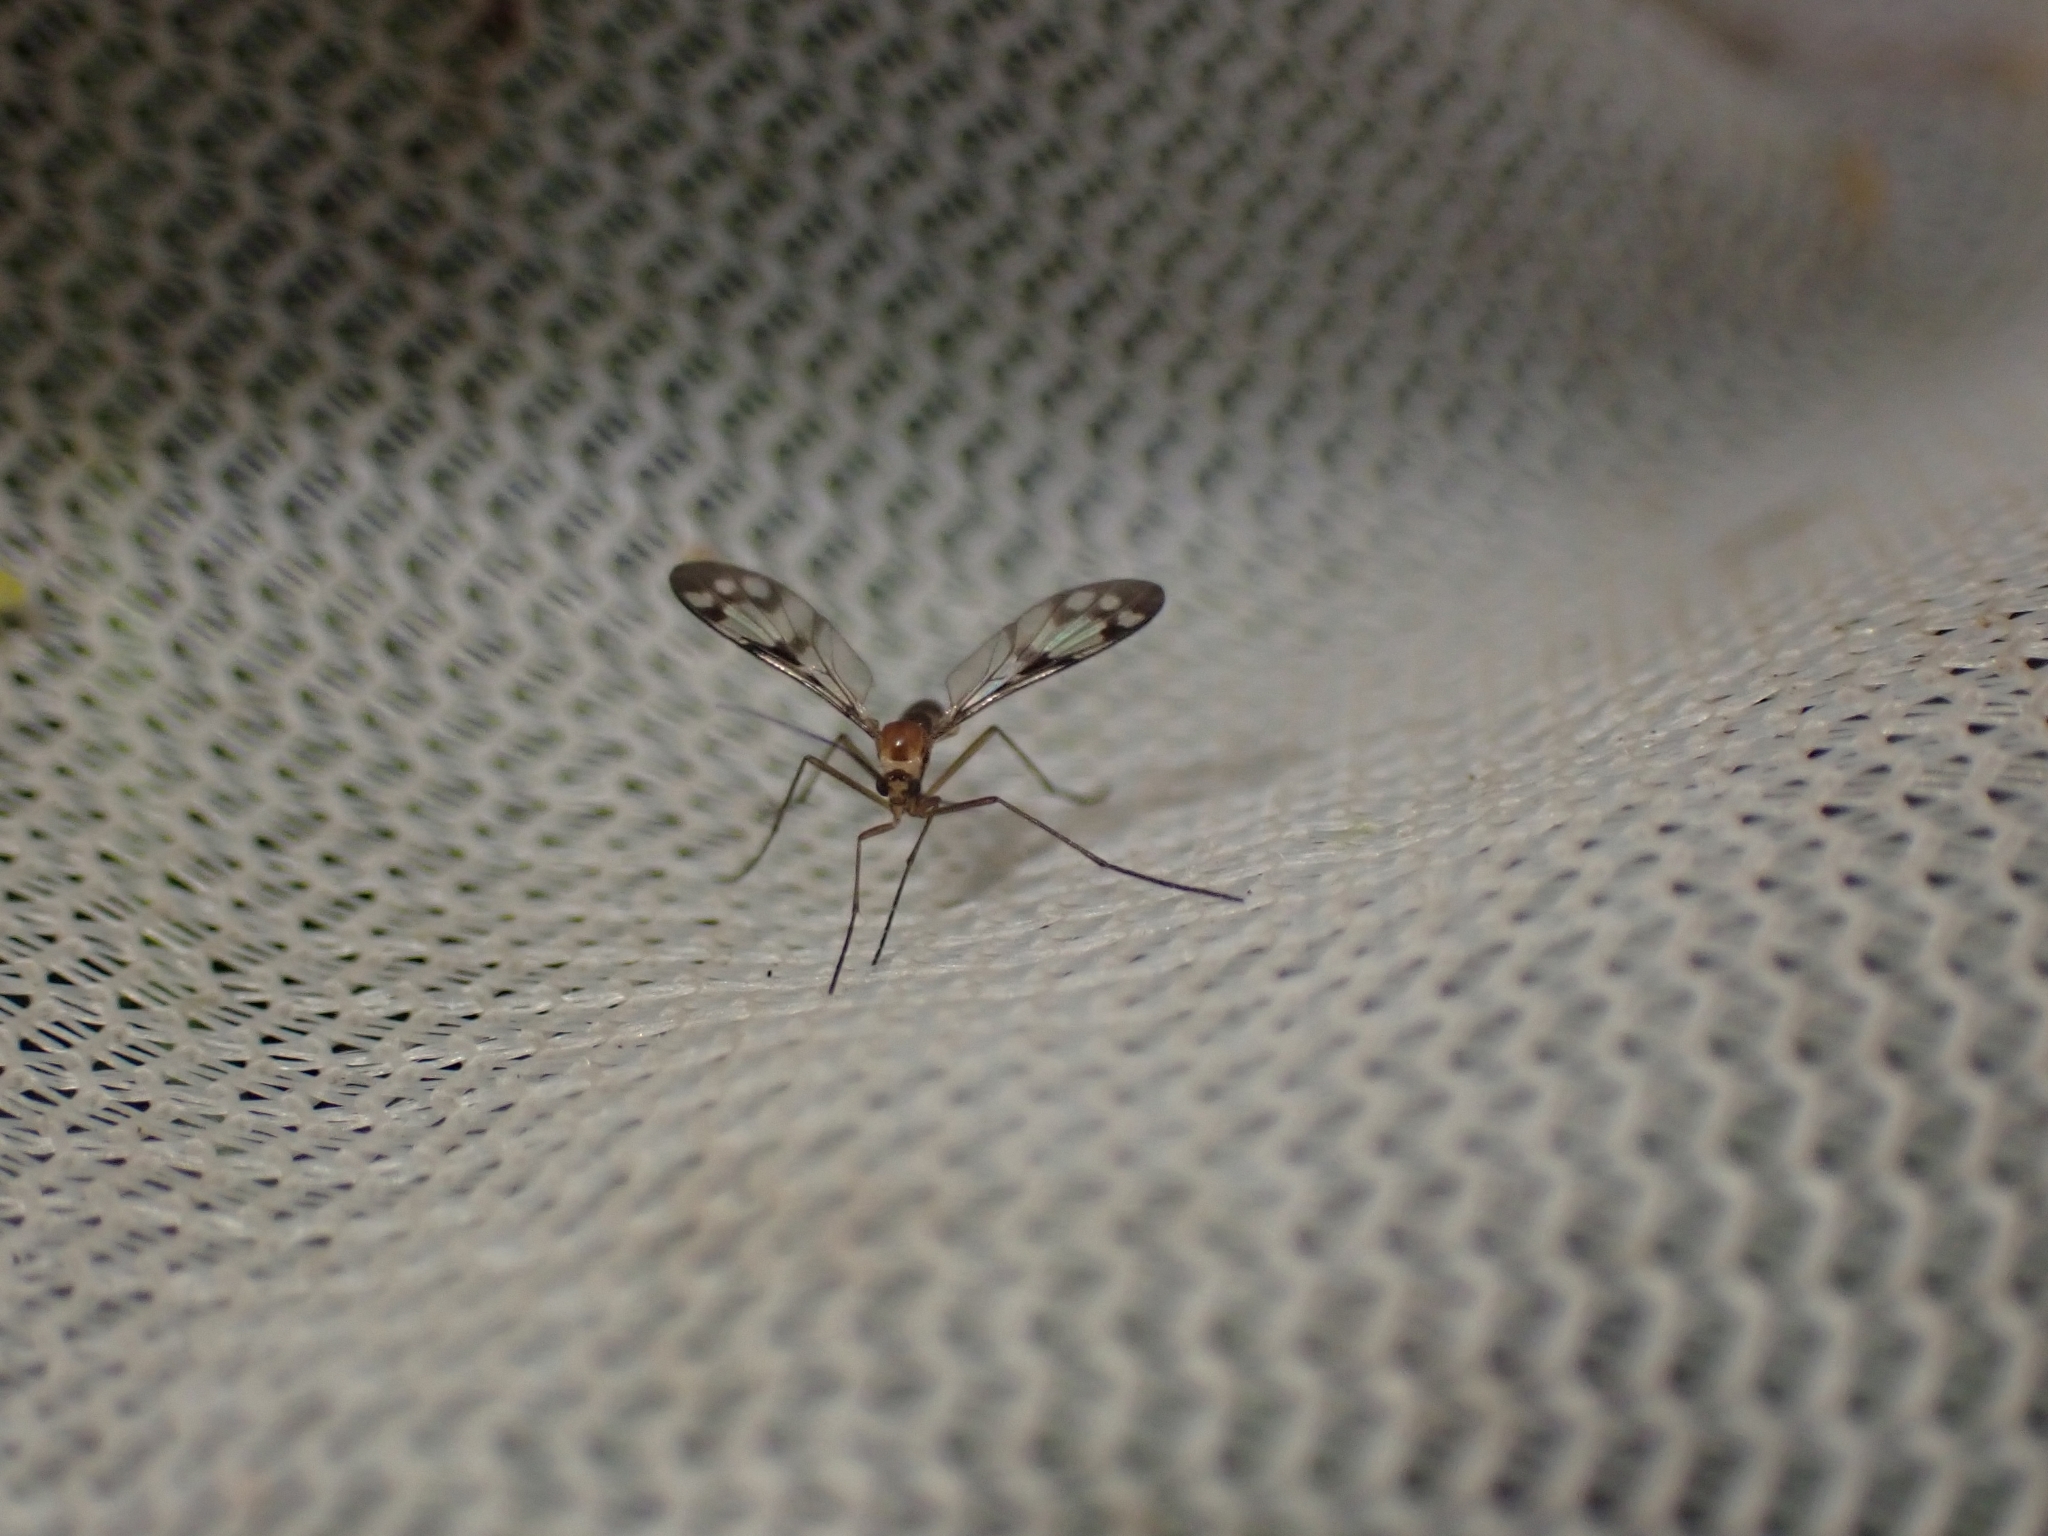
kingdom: Animalia
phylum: Arthropoda
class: Insecta
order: Diptera
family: Keroplatidae
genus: Chiasmoneura
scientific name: Chiasmoneura fenestrata
